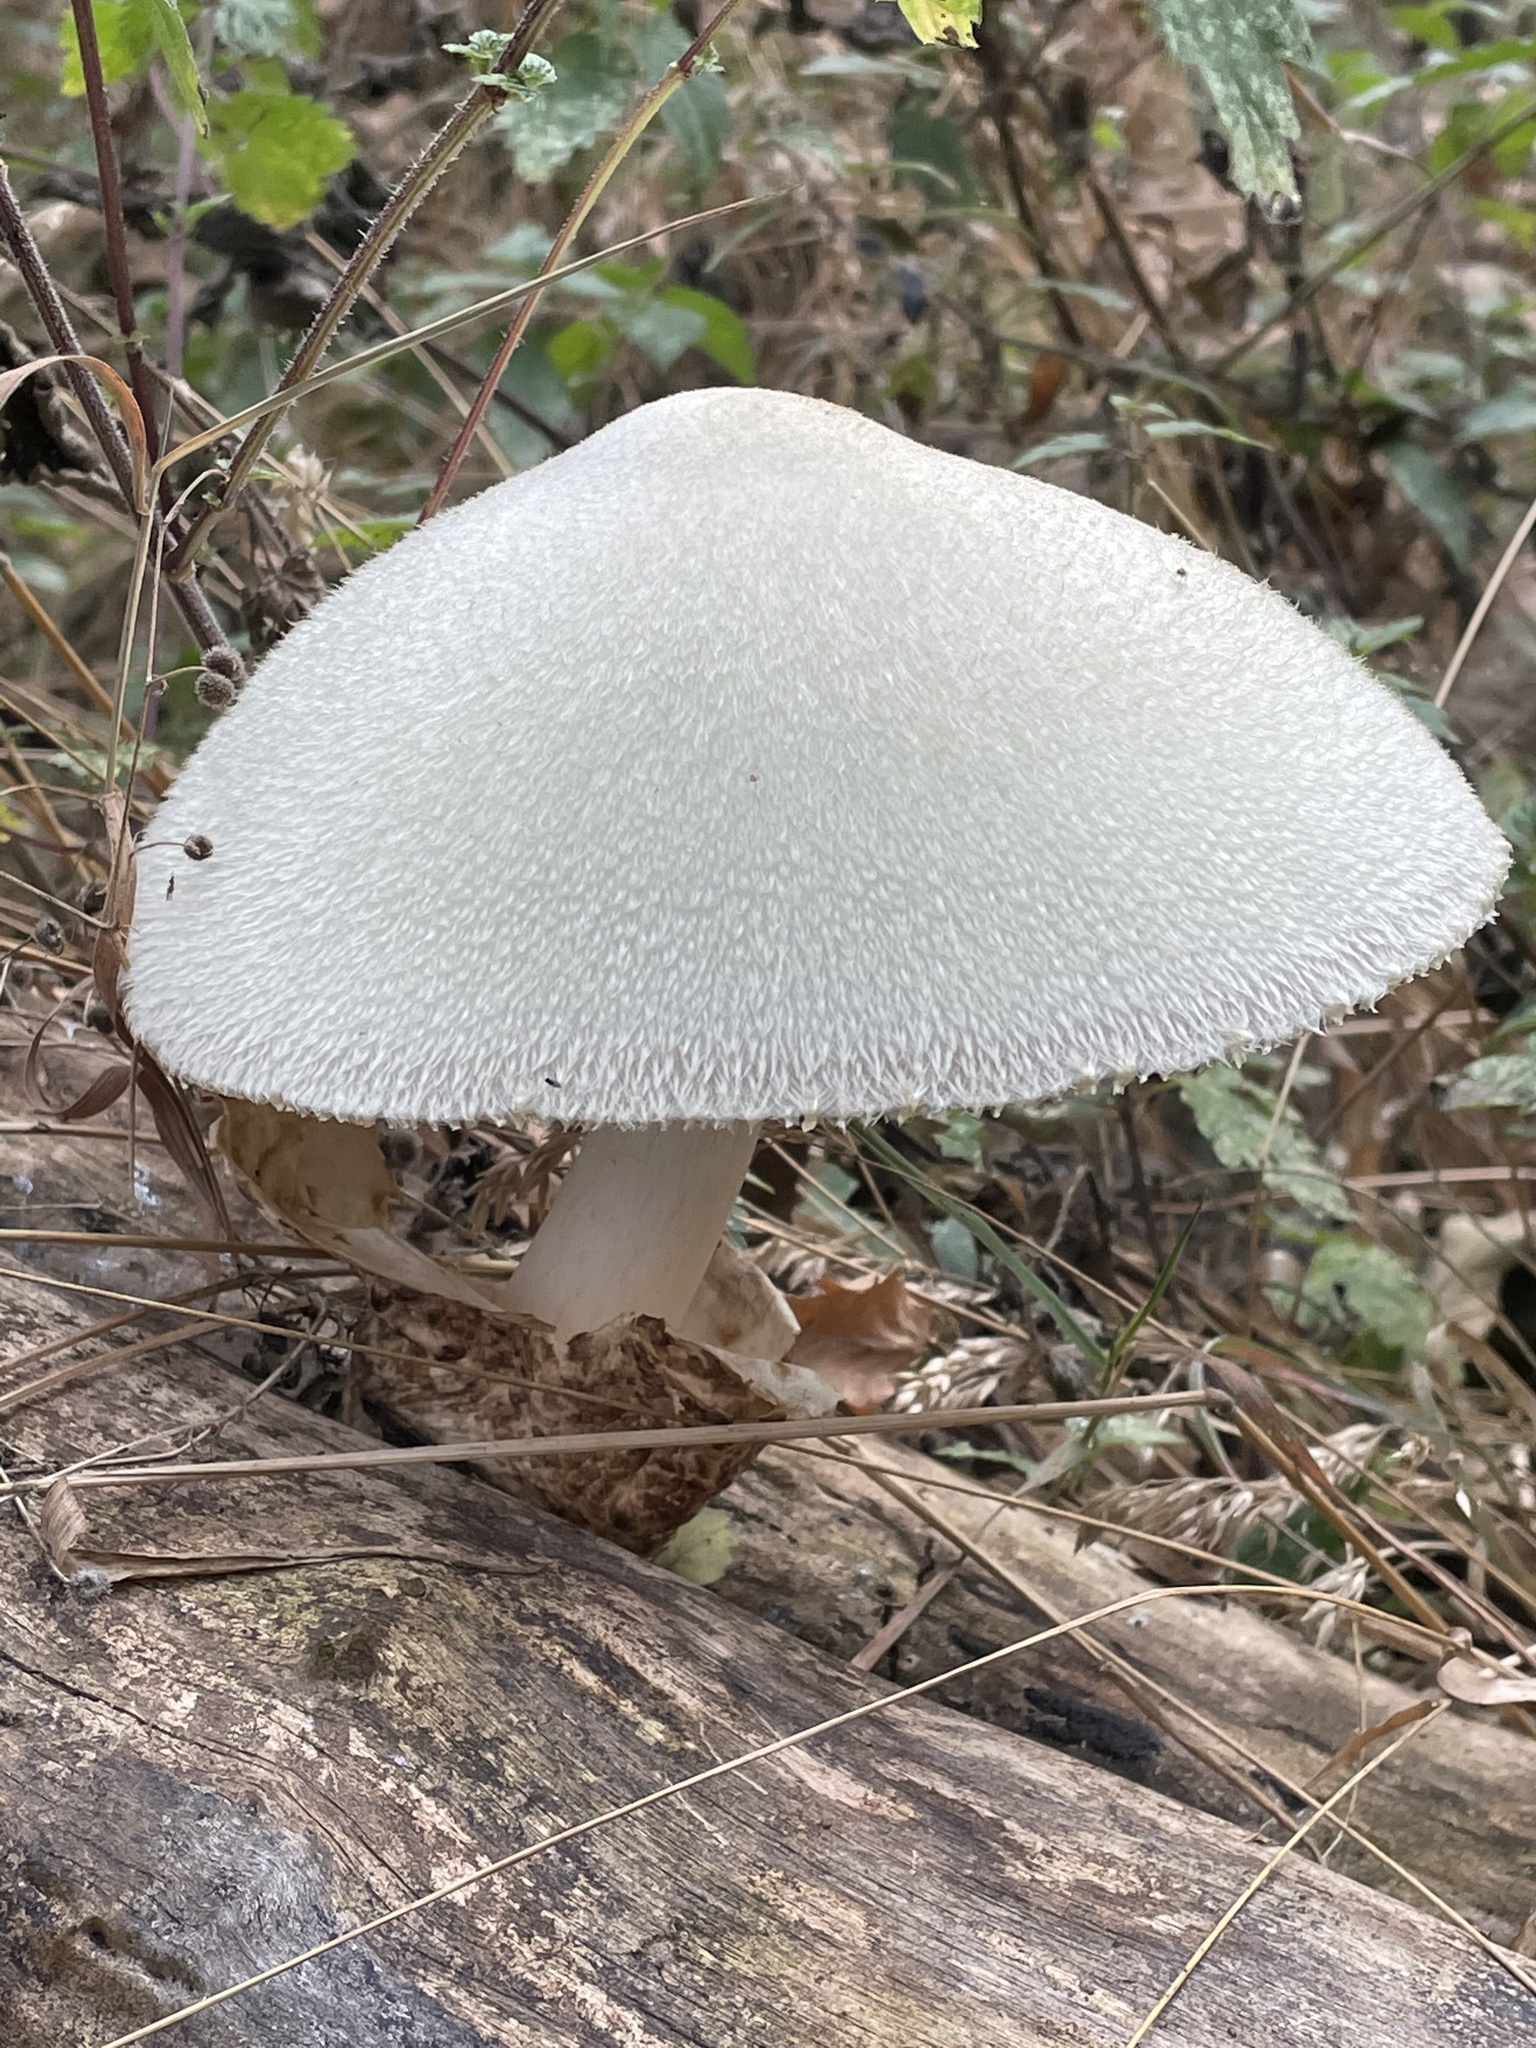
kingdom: Fungi
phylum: Basidiomycota
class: Agaricomycetes
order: Agaricales
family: Pluteaceae
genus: Volvariella
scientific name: Volvariella bombycina
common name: Silky rosegill
